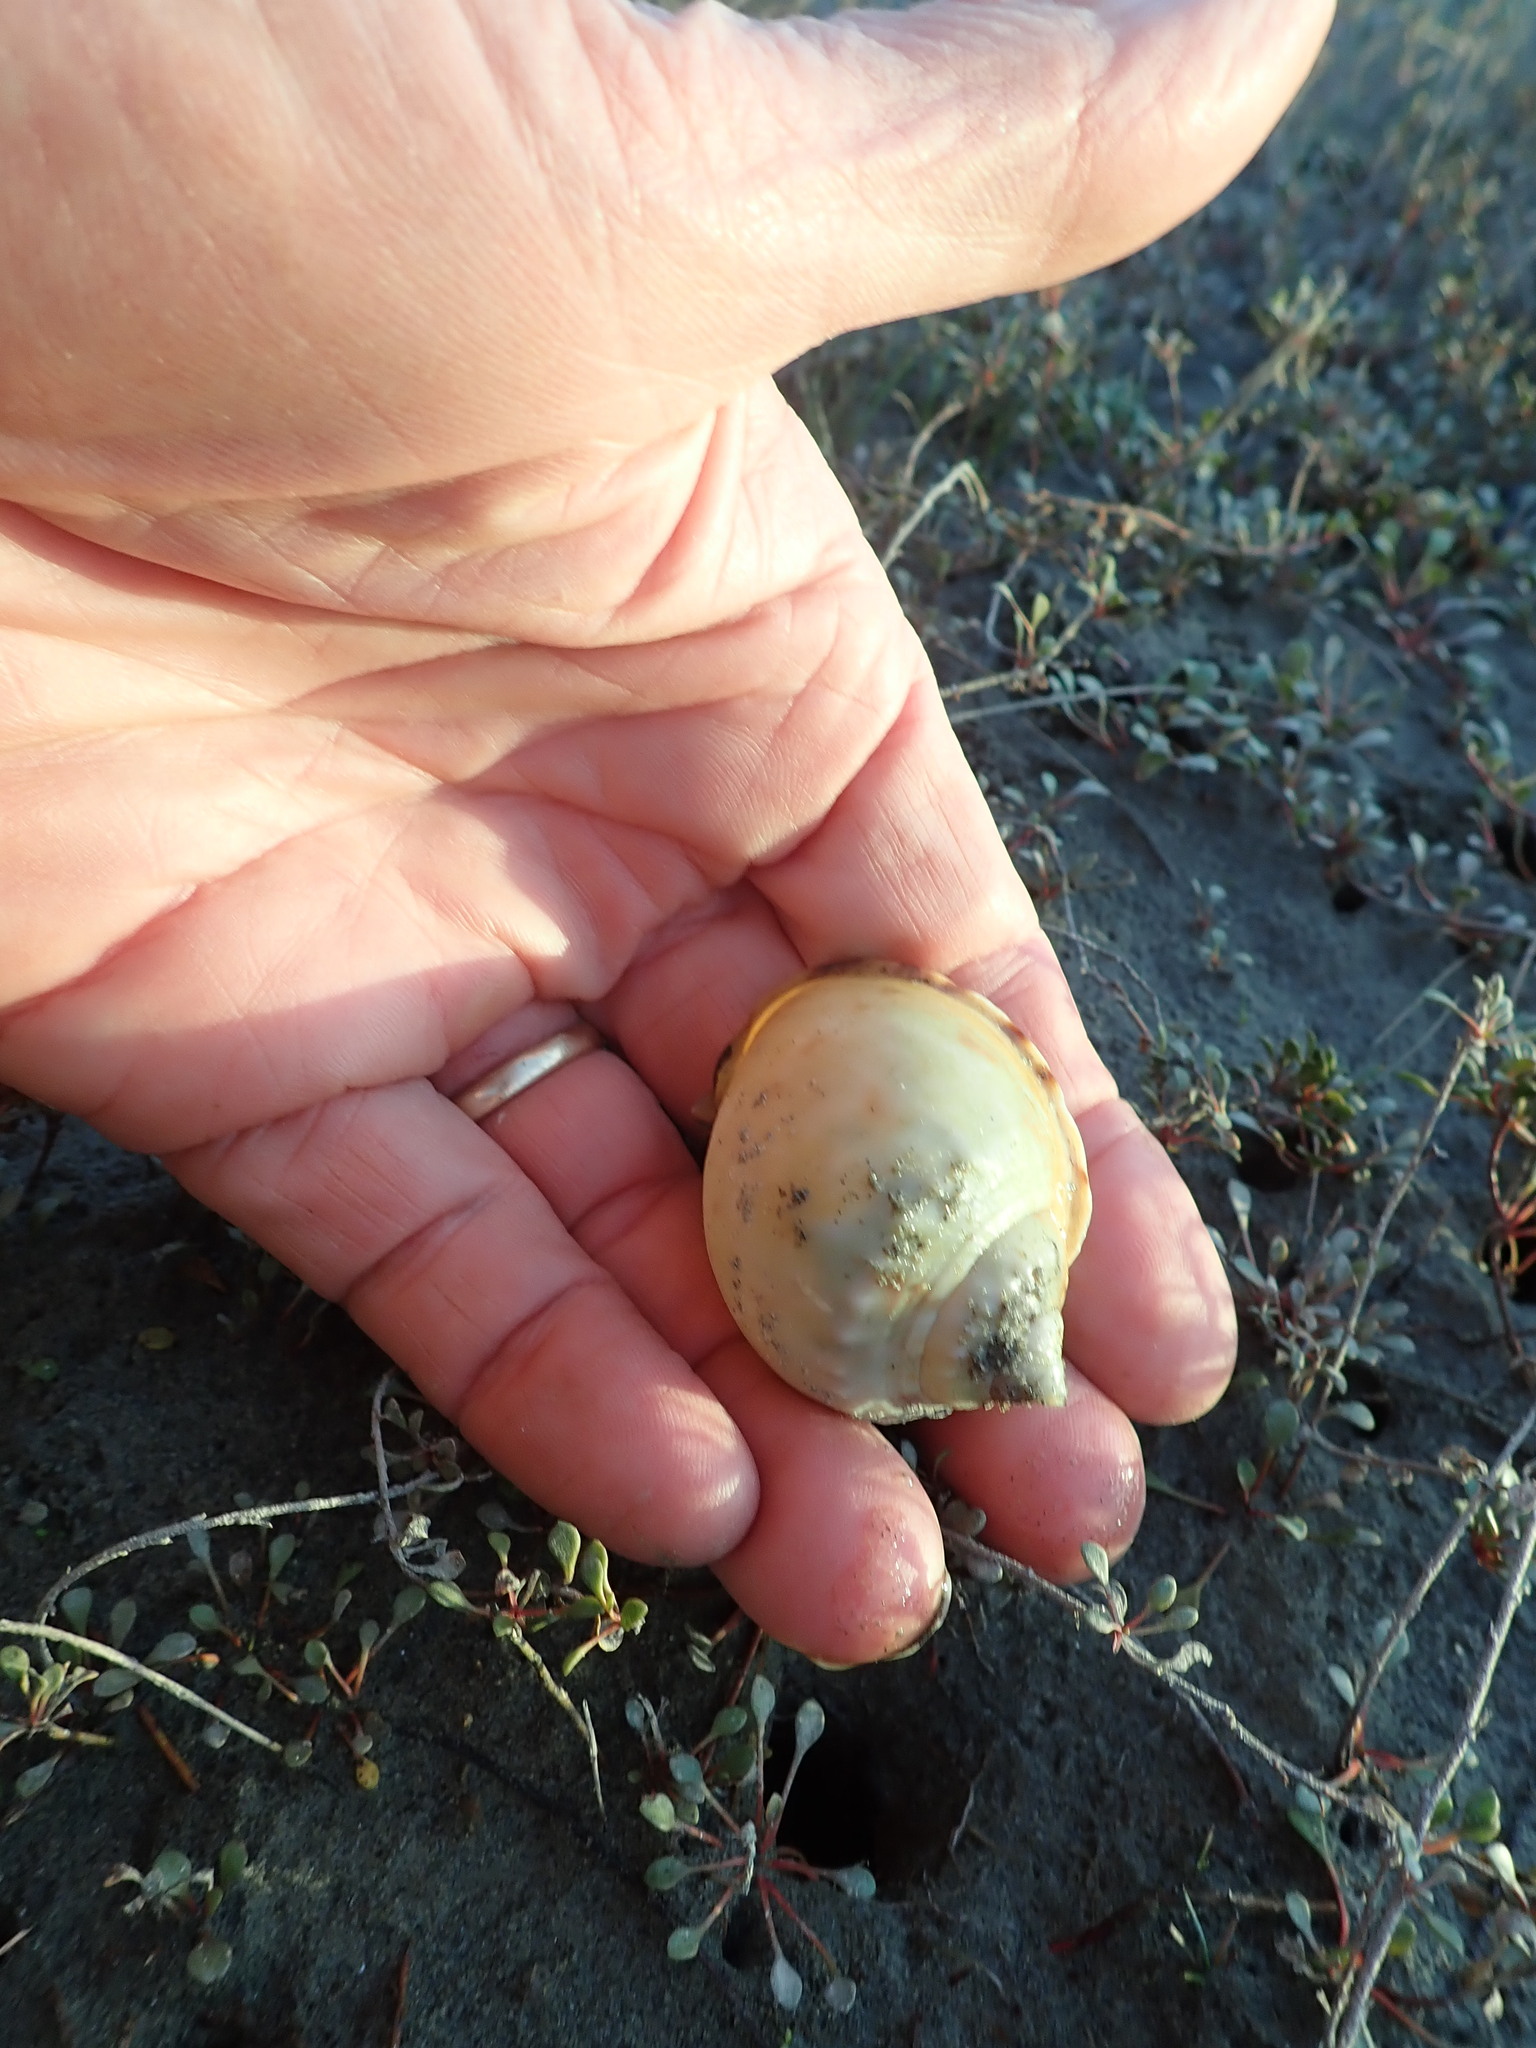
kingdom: Animalia
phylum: Mollusca
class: Gastropoda
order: Littorinimorpha
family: Cassidae
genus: Semicassis
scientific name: Semicassis pyrum
